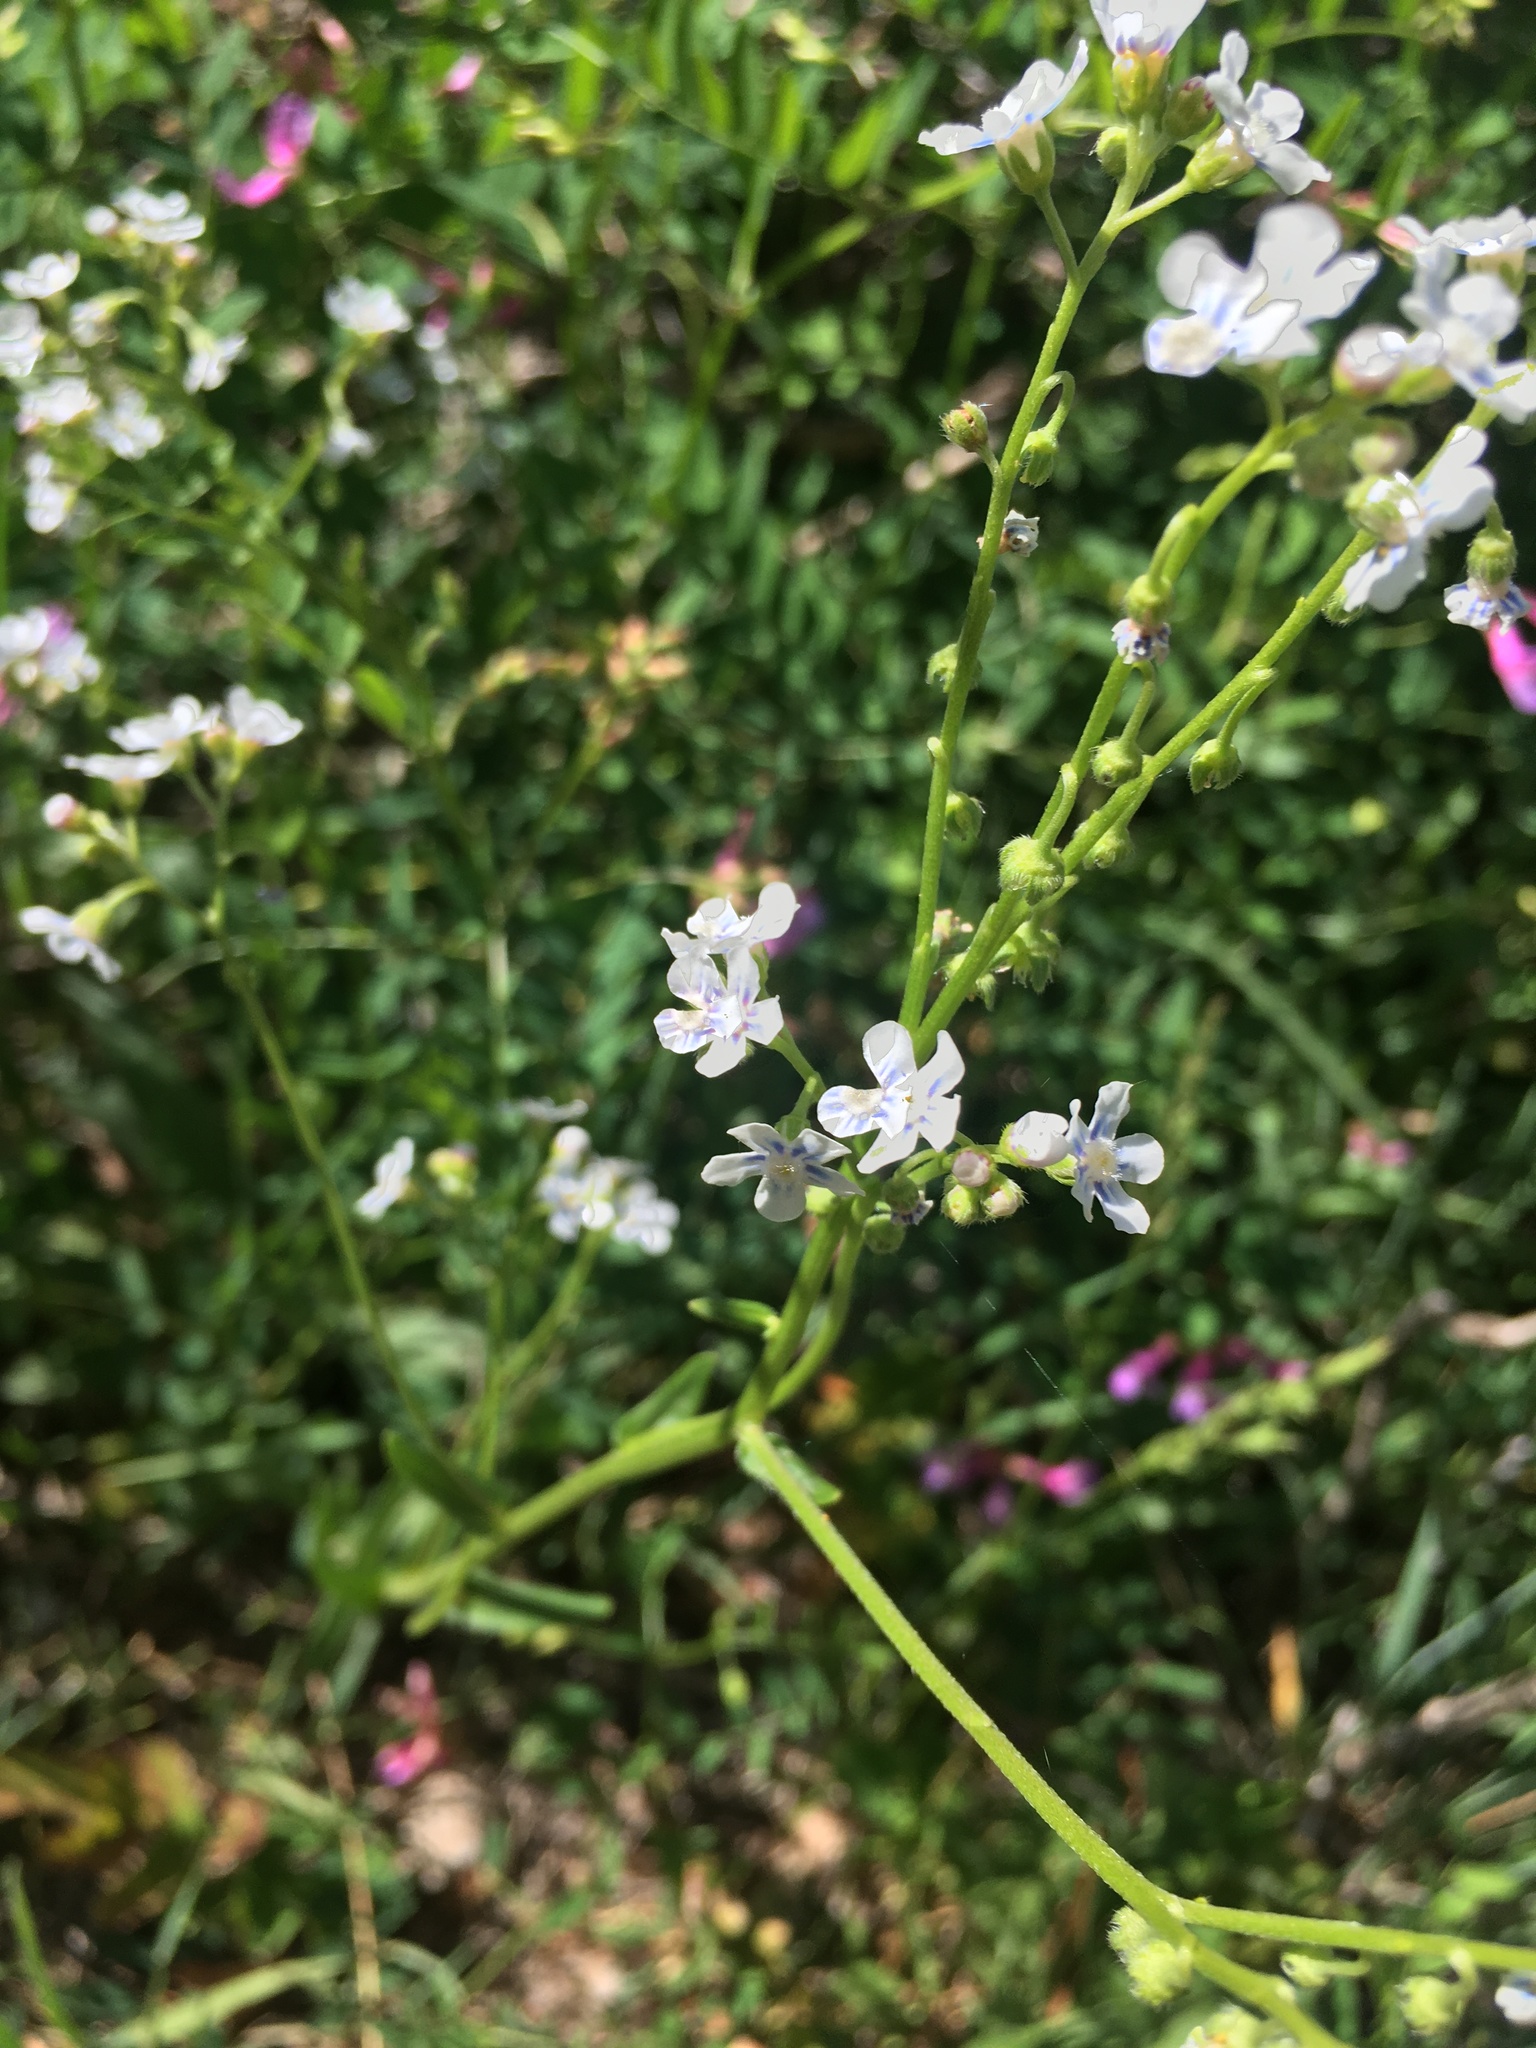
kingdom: Plantae
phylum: Tracheophyta
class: Magnoliopsida
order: Boraginales
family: Boraginaceae
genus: Hackelia
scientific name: Hackelia patens
